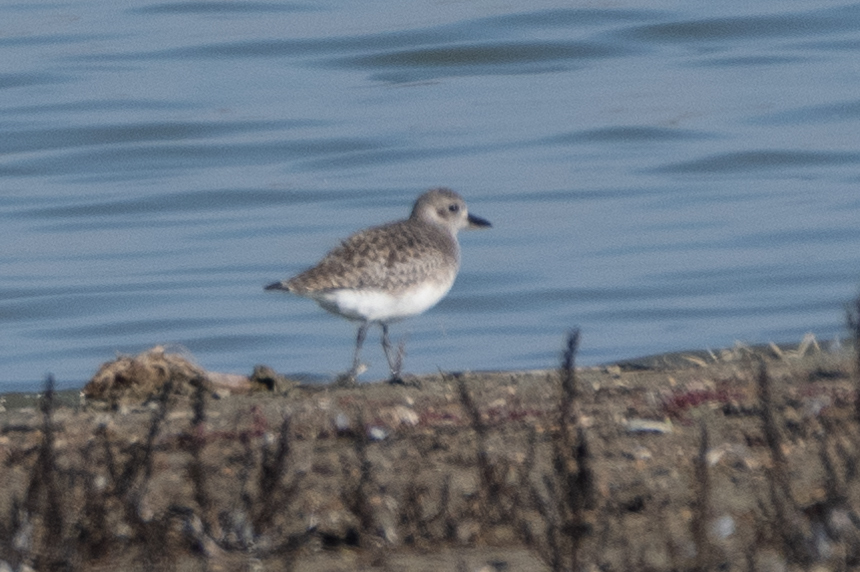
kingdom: Animalia
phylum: Chordata
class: Aves
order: Charadriiformes
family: Charadriidae
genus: Pluvialis
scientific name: Pluvialis squatarola
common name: Grey plover
